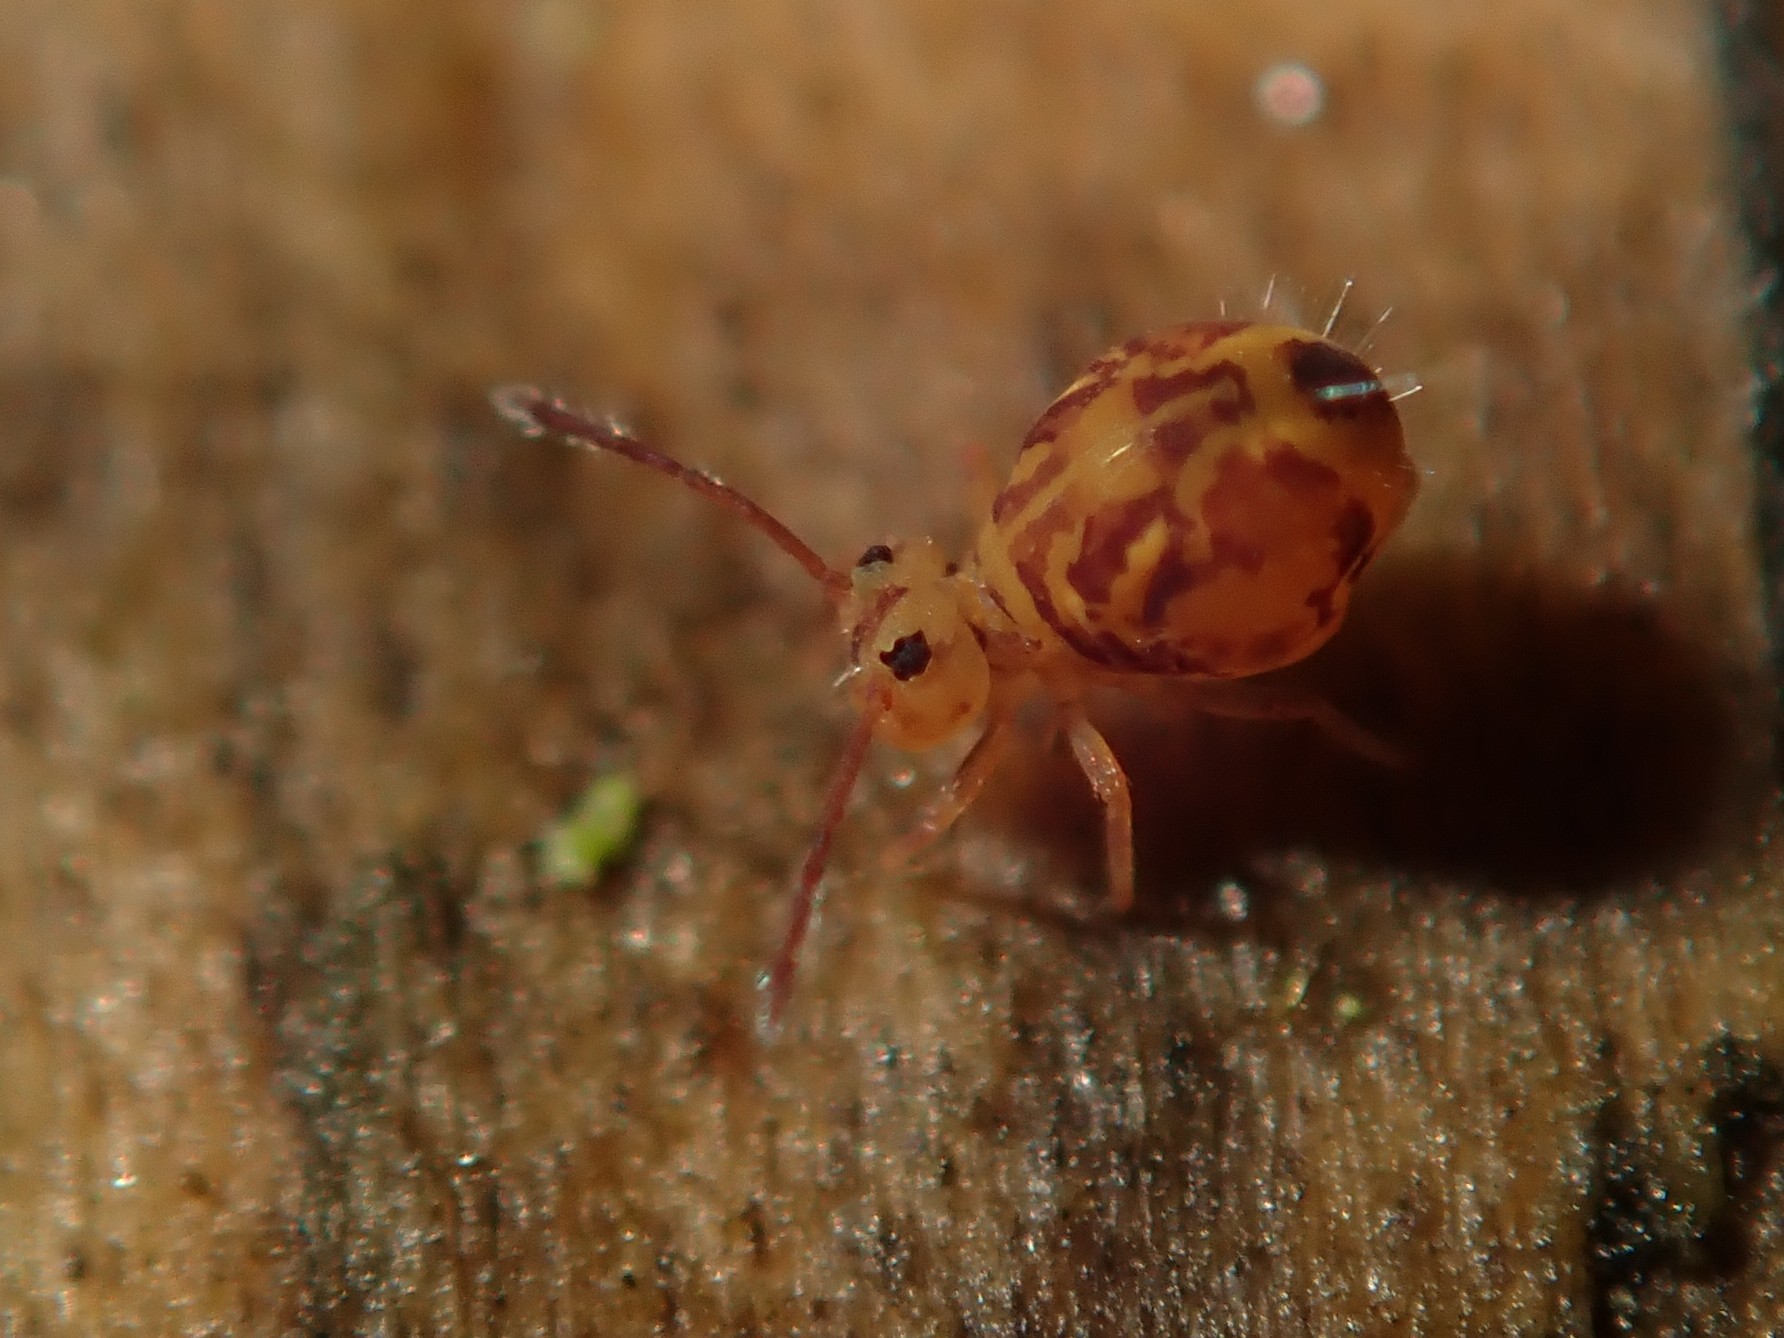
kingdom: Animalia
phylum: Arthropoda
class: Collembola
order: Symphypleona
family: Dicyrtomidae
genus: Dicyrtomina
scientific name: Dicyrtomina ornata
